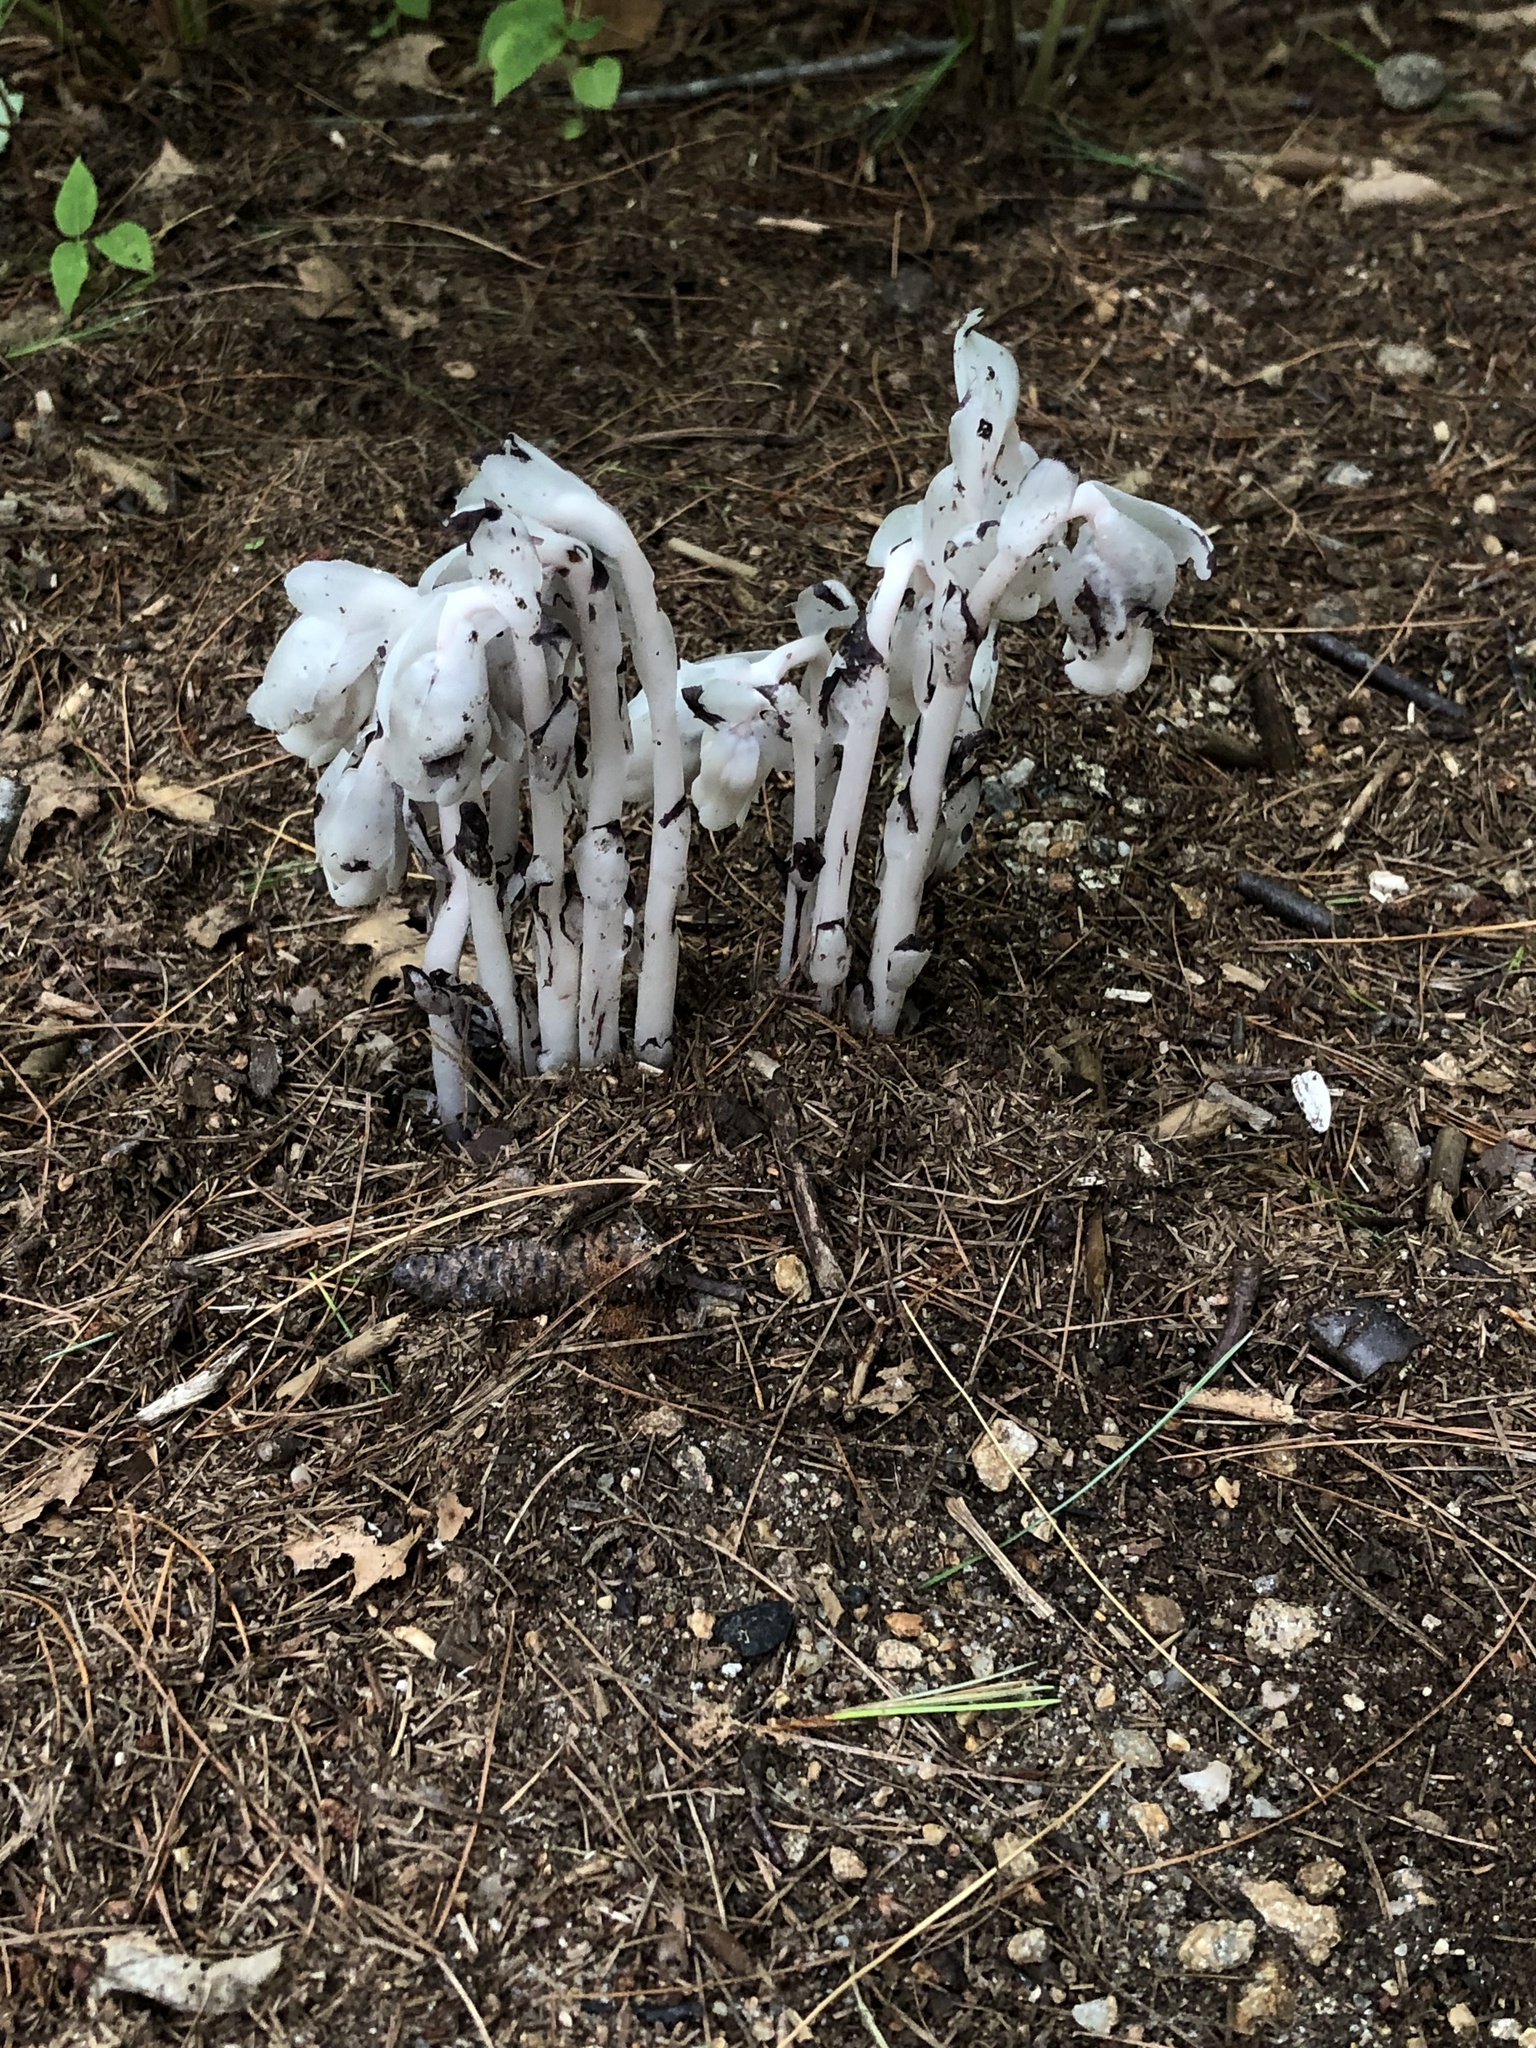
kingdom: Plantae
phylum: Tracheophyta
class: Magnoliopsida
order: Ericales
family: Ericaceae
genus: Monotropa
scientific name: Monotropa uniflora
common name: Convulsion root
